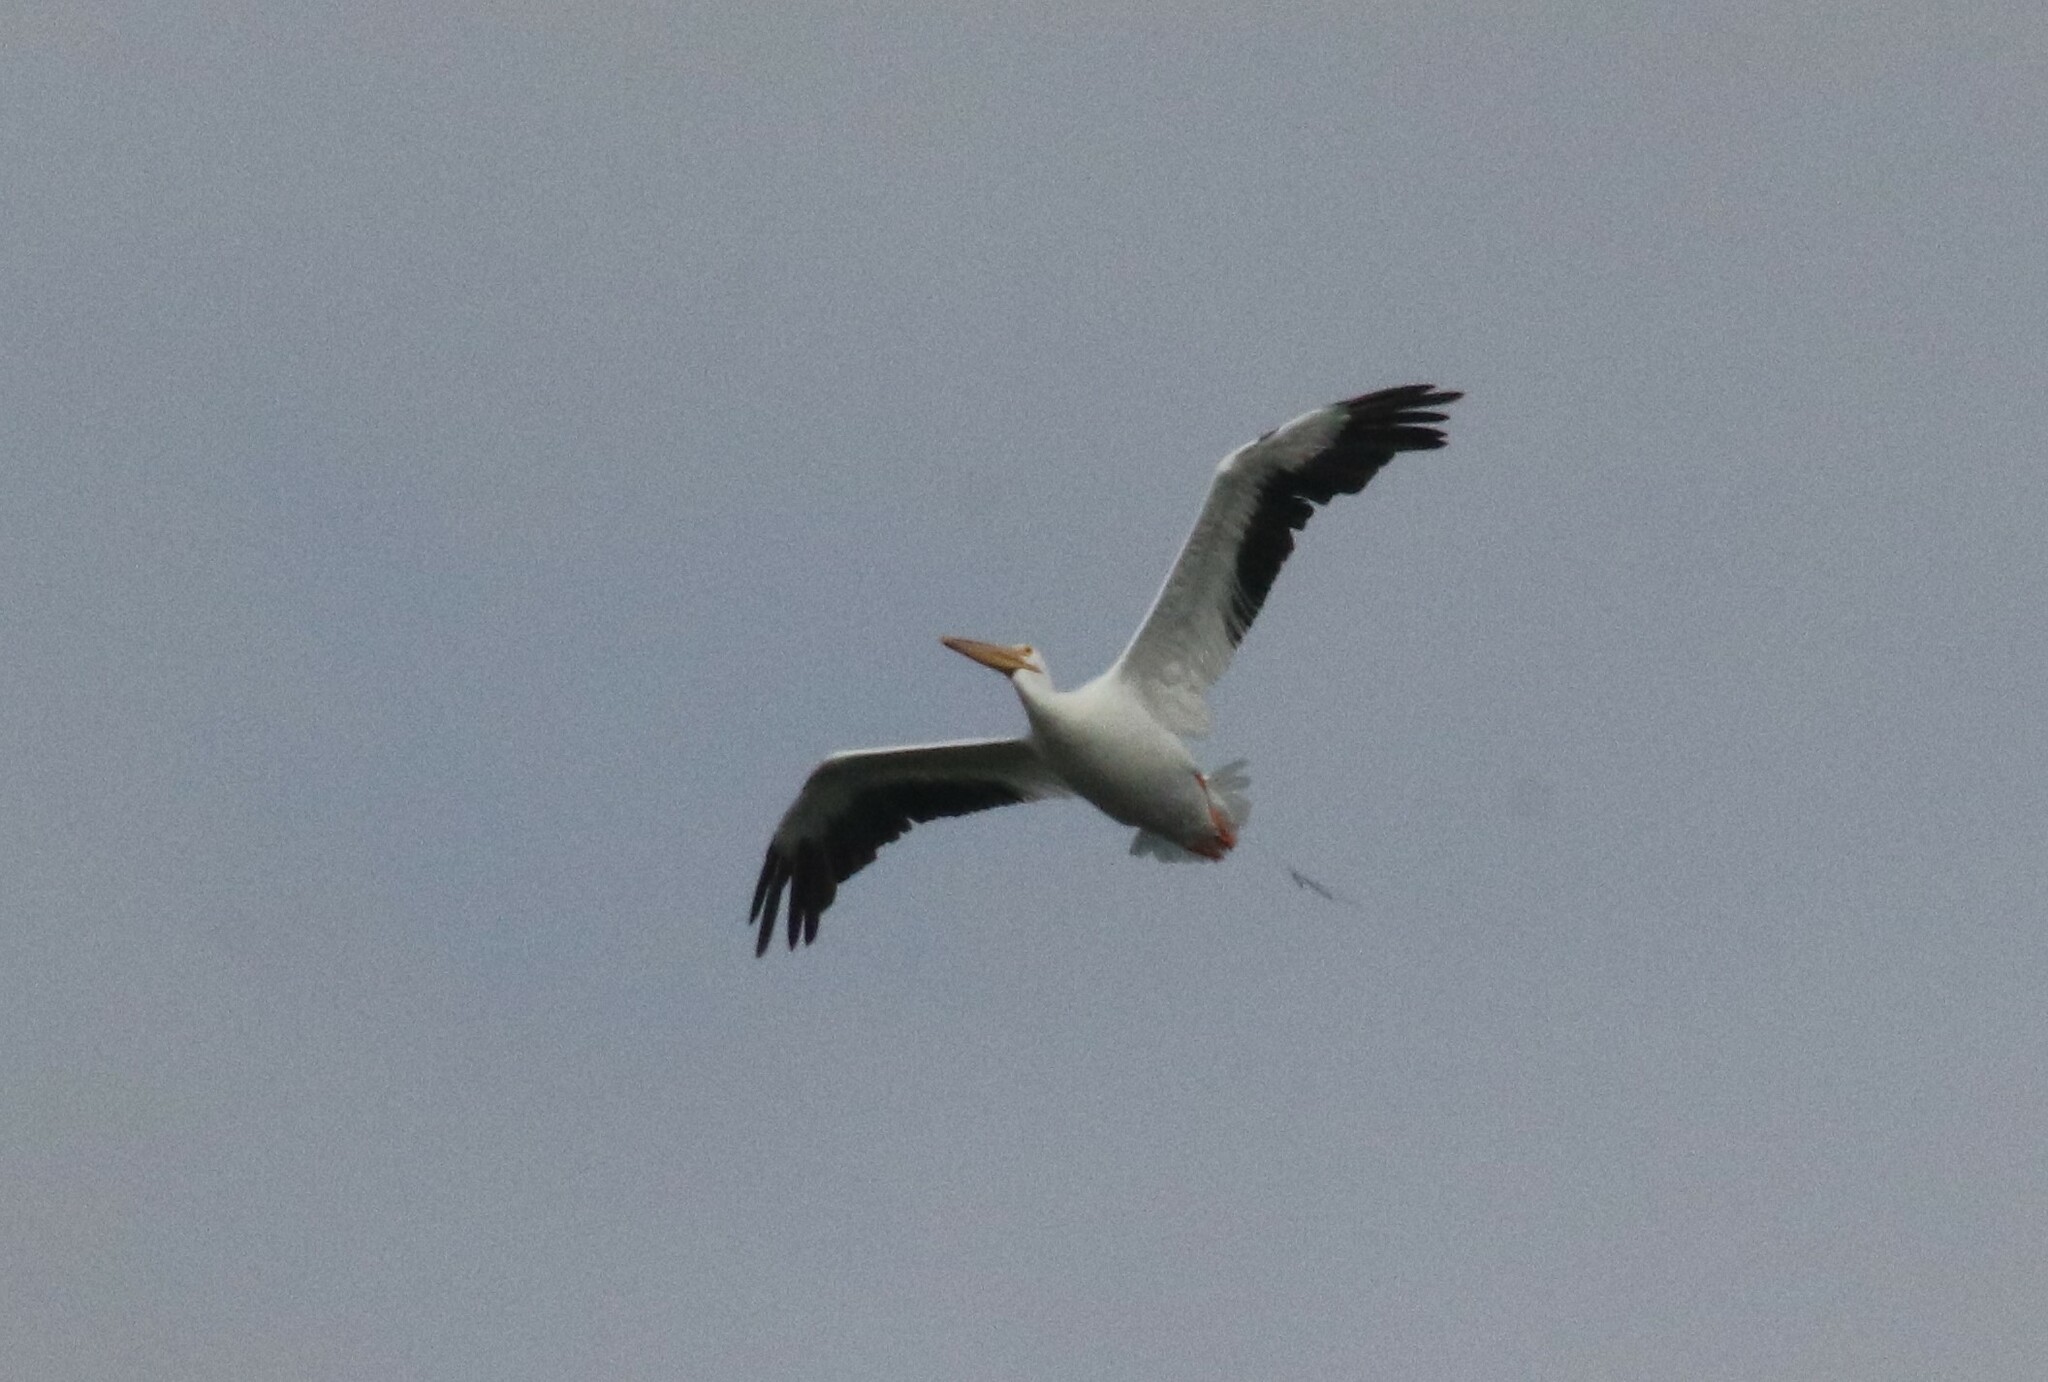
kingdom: Animalia
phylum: Chordata
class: Aves
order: Pelecaniformes
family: Pelecanidae
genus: Pelecanus
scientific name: Pelecanus erythrorhynchos
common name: American white pelican
